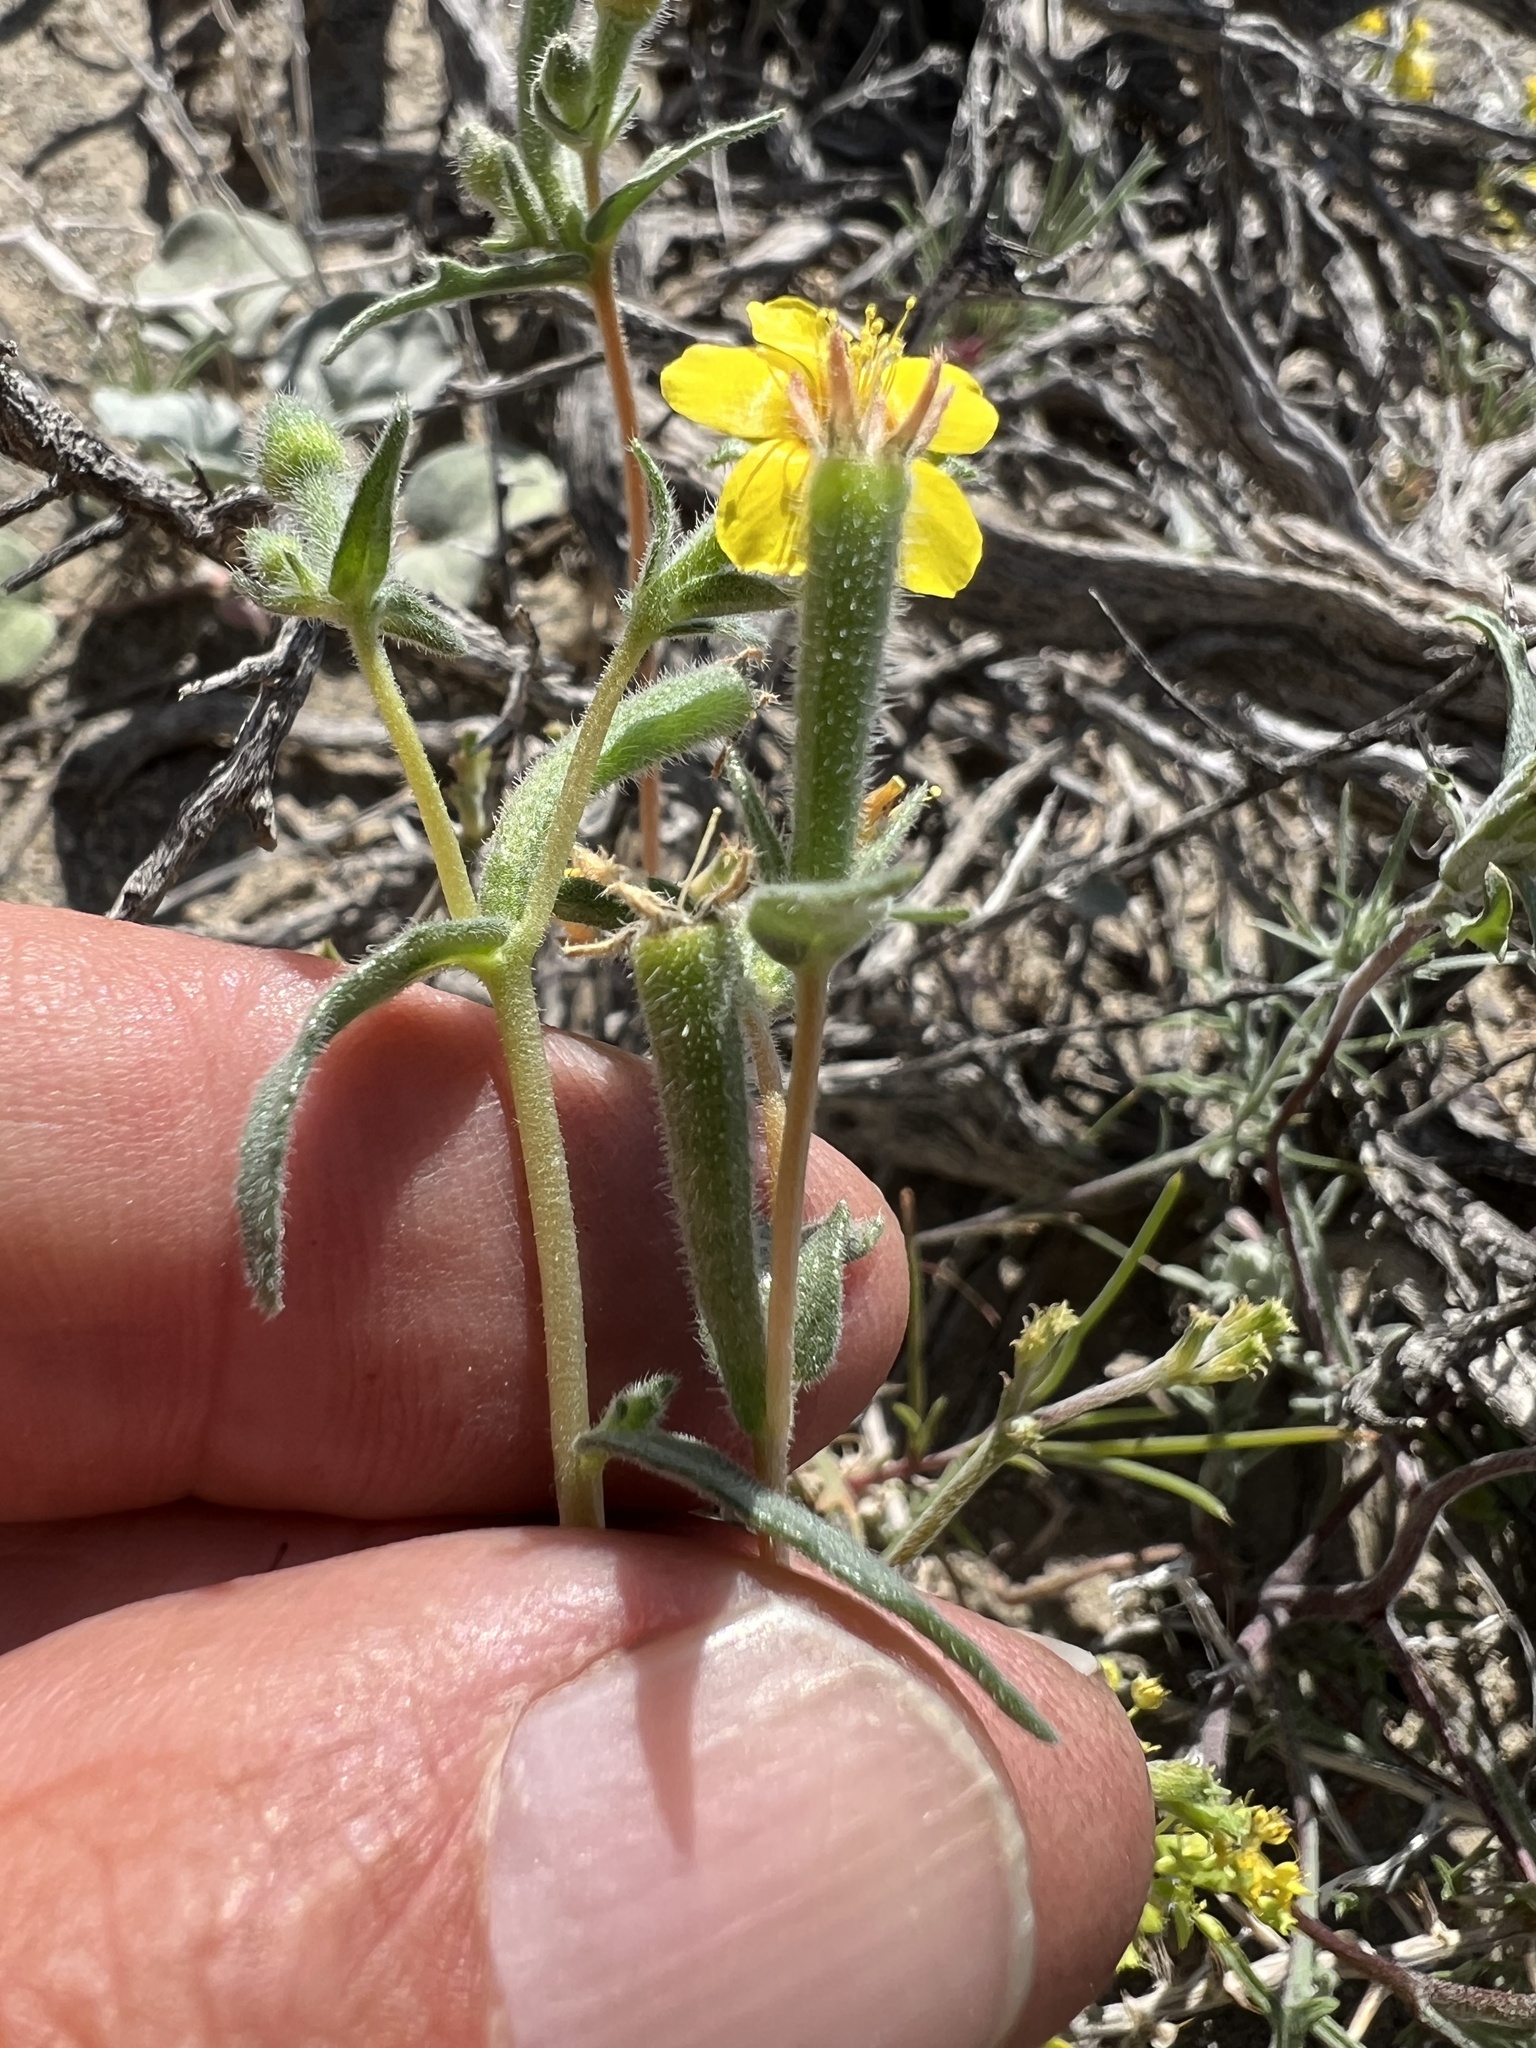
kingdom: Plantae
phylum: Tracheophyta
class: Magnoliopsida
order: Cornales
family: Loasaceae
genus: Mentzelia
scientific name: Mentzelia albicaulis
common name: White-stem blazingstar
